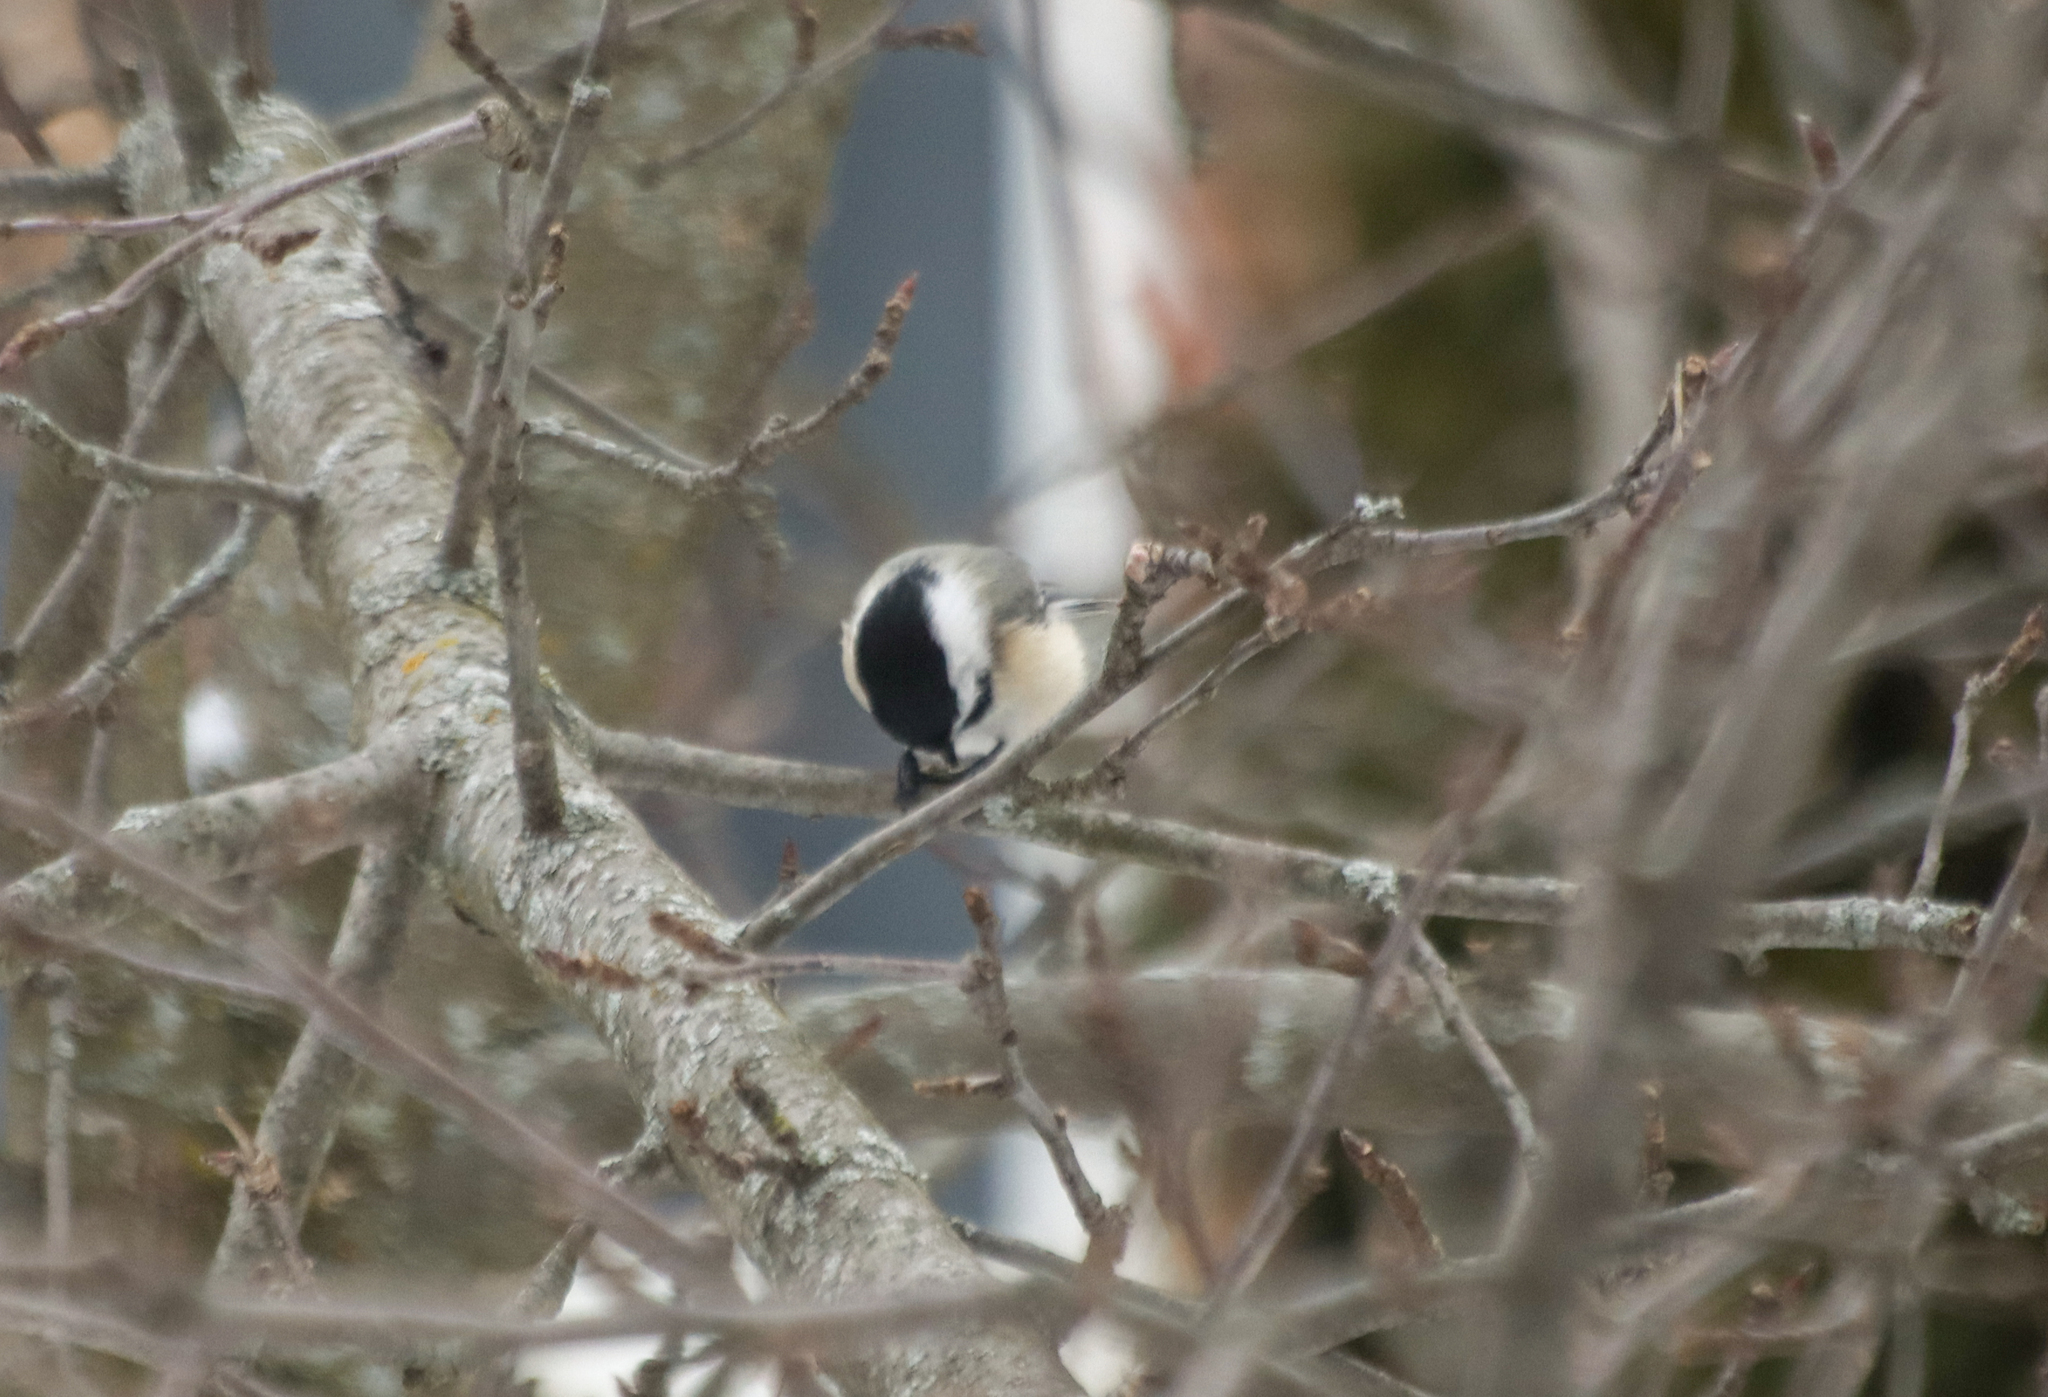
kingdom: Animalia
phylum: Chordata
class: Aves
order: Passeriformes
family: Paridae
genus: Poecile
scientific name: Poecile atricapillus
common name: Black-capped chickadee
